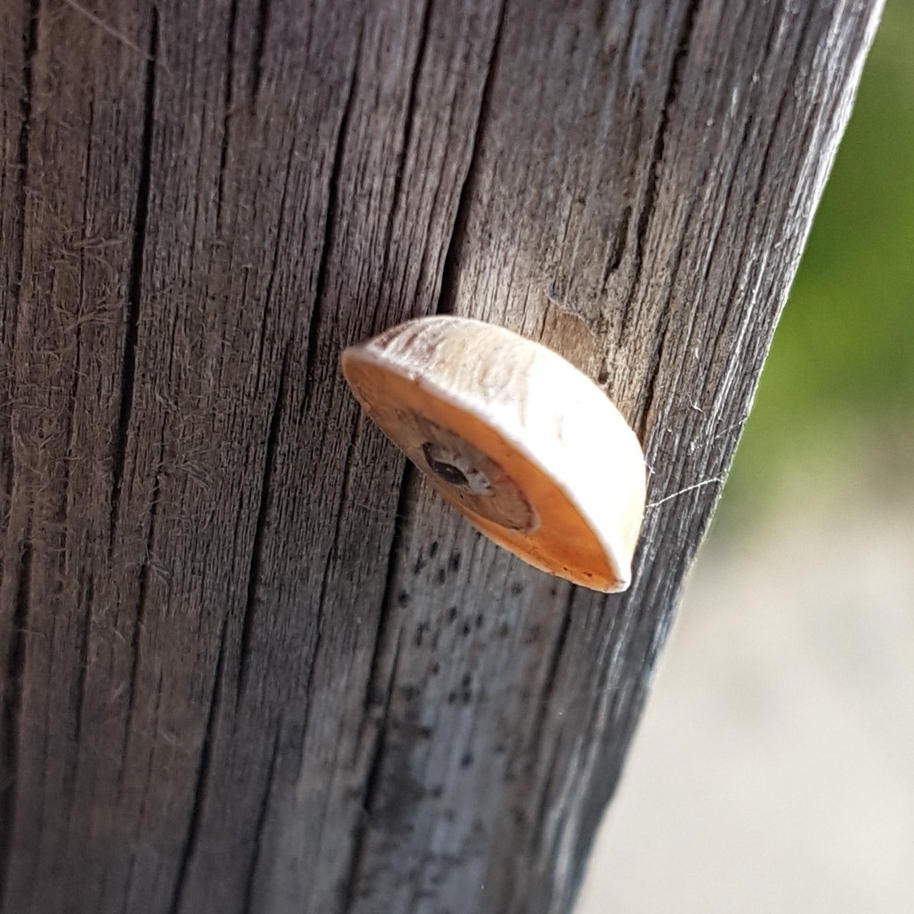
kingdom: Animalia
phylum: Mollusca
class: Gastropoda
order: Stylommatophora
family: Geomitridae
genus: Xerosecta
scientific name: Xerosecta explanata
